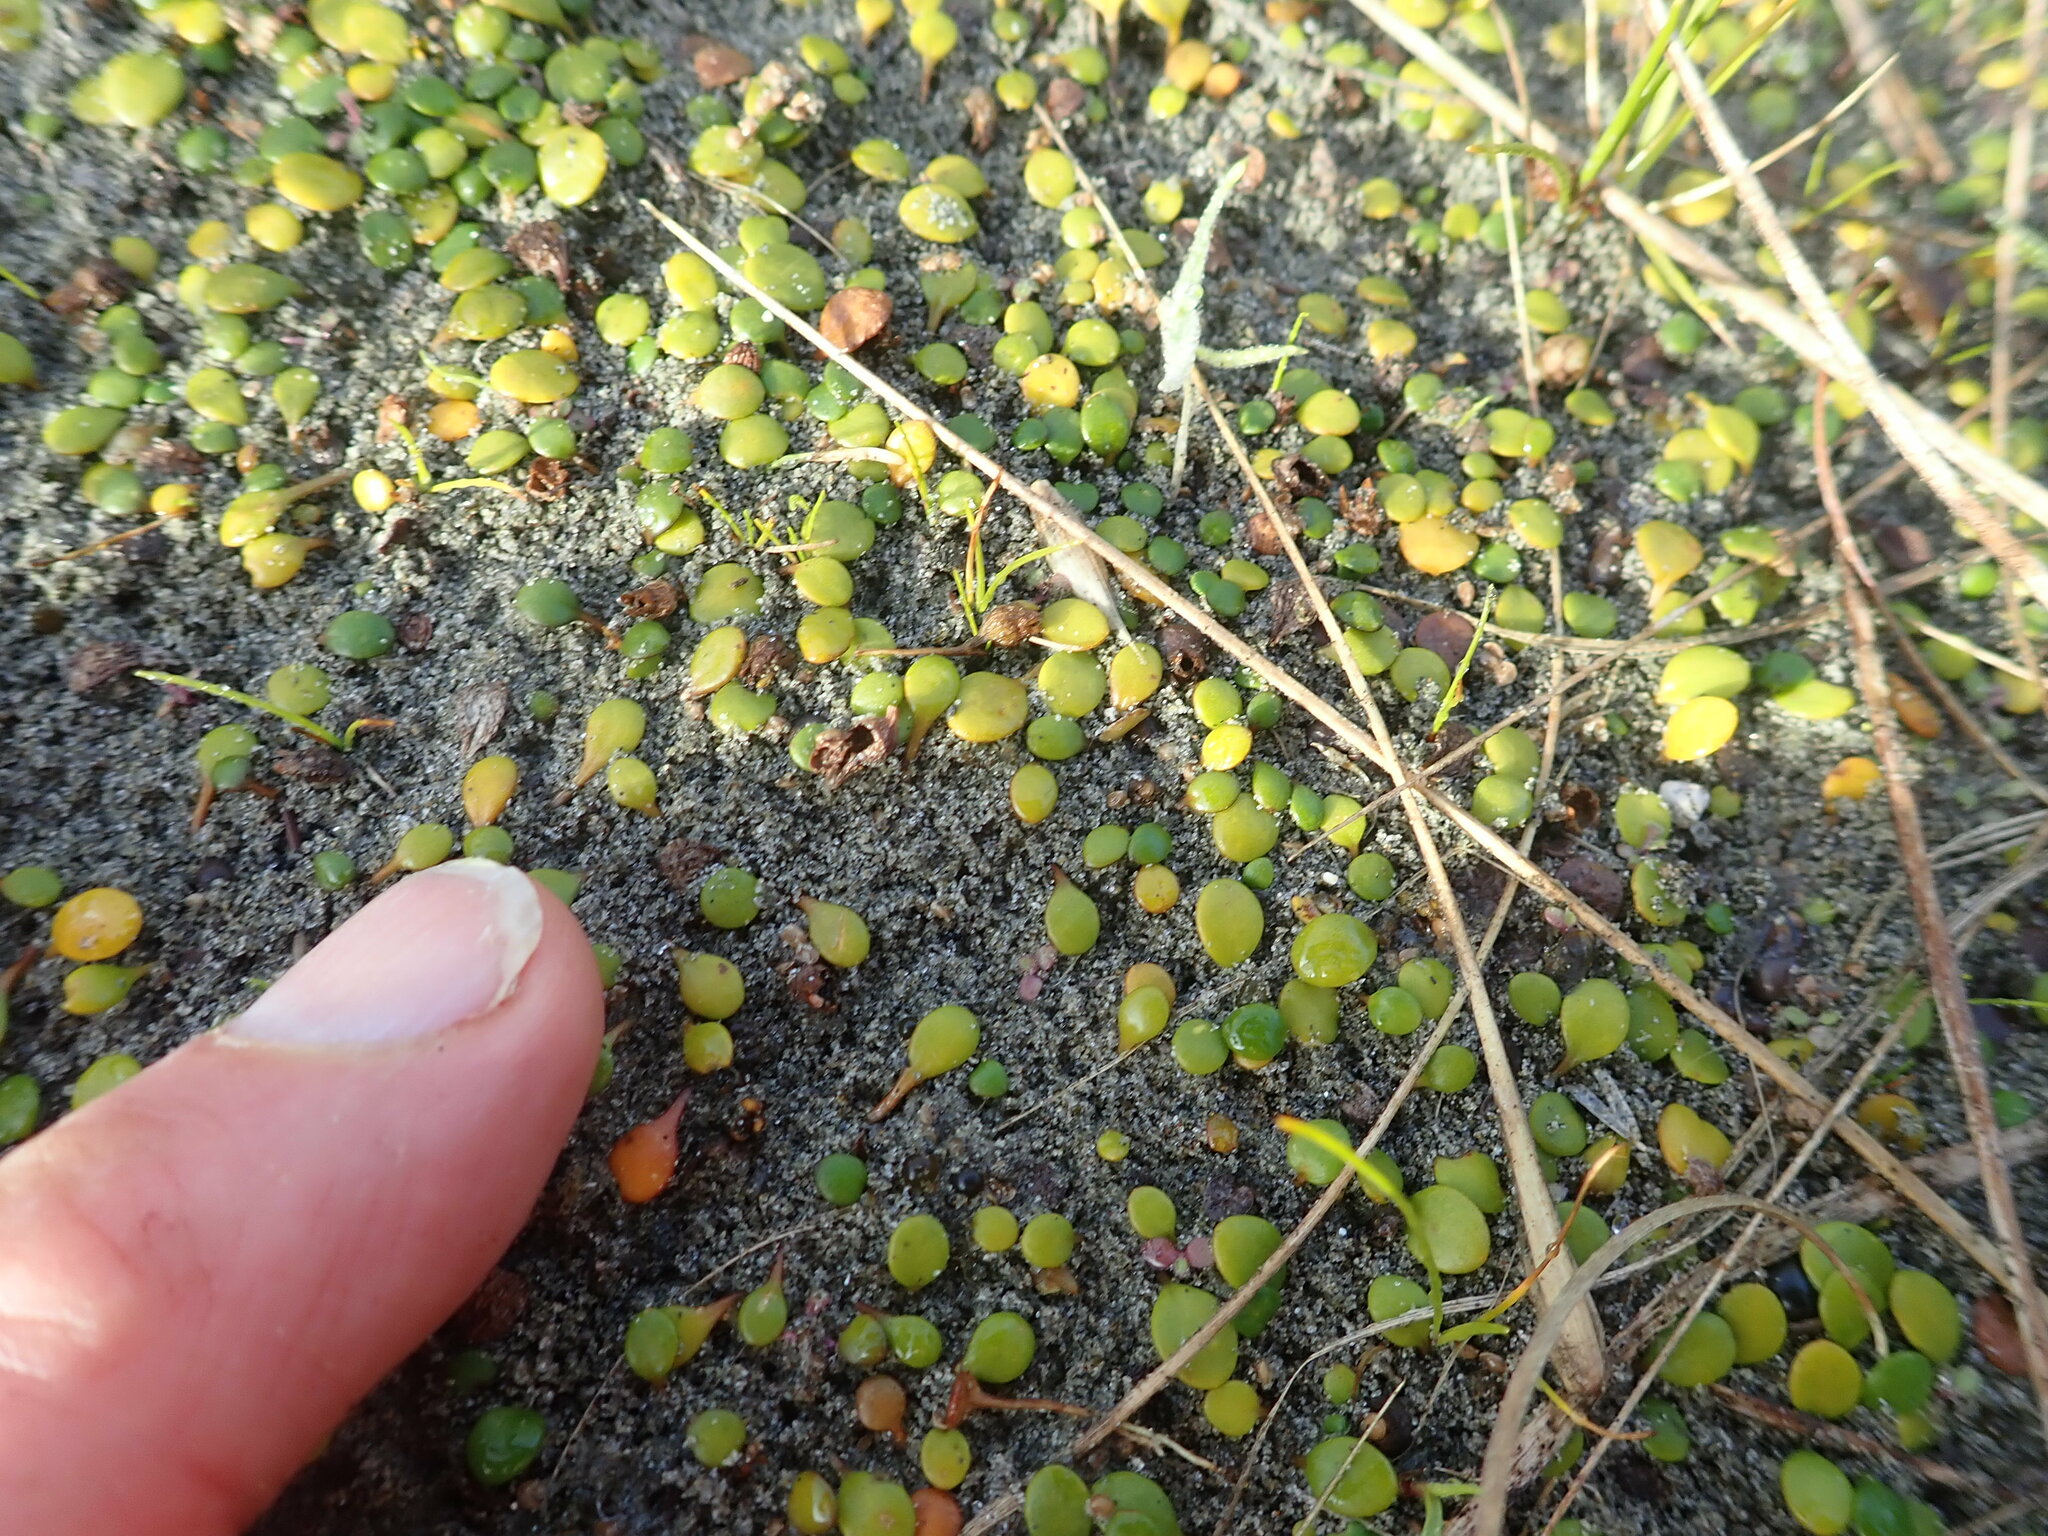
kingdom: Plantae
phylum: Tracheophyta
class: Magnoliopsida
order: Asterales
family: Goodeniaceae
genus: Goodenia
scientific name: Goodenia heenanii
